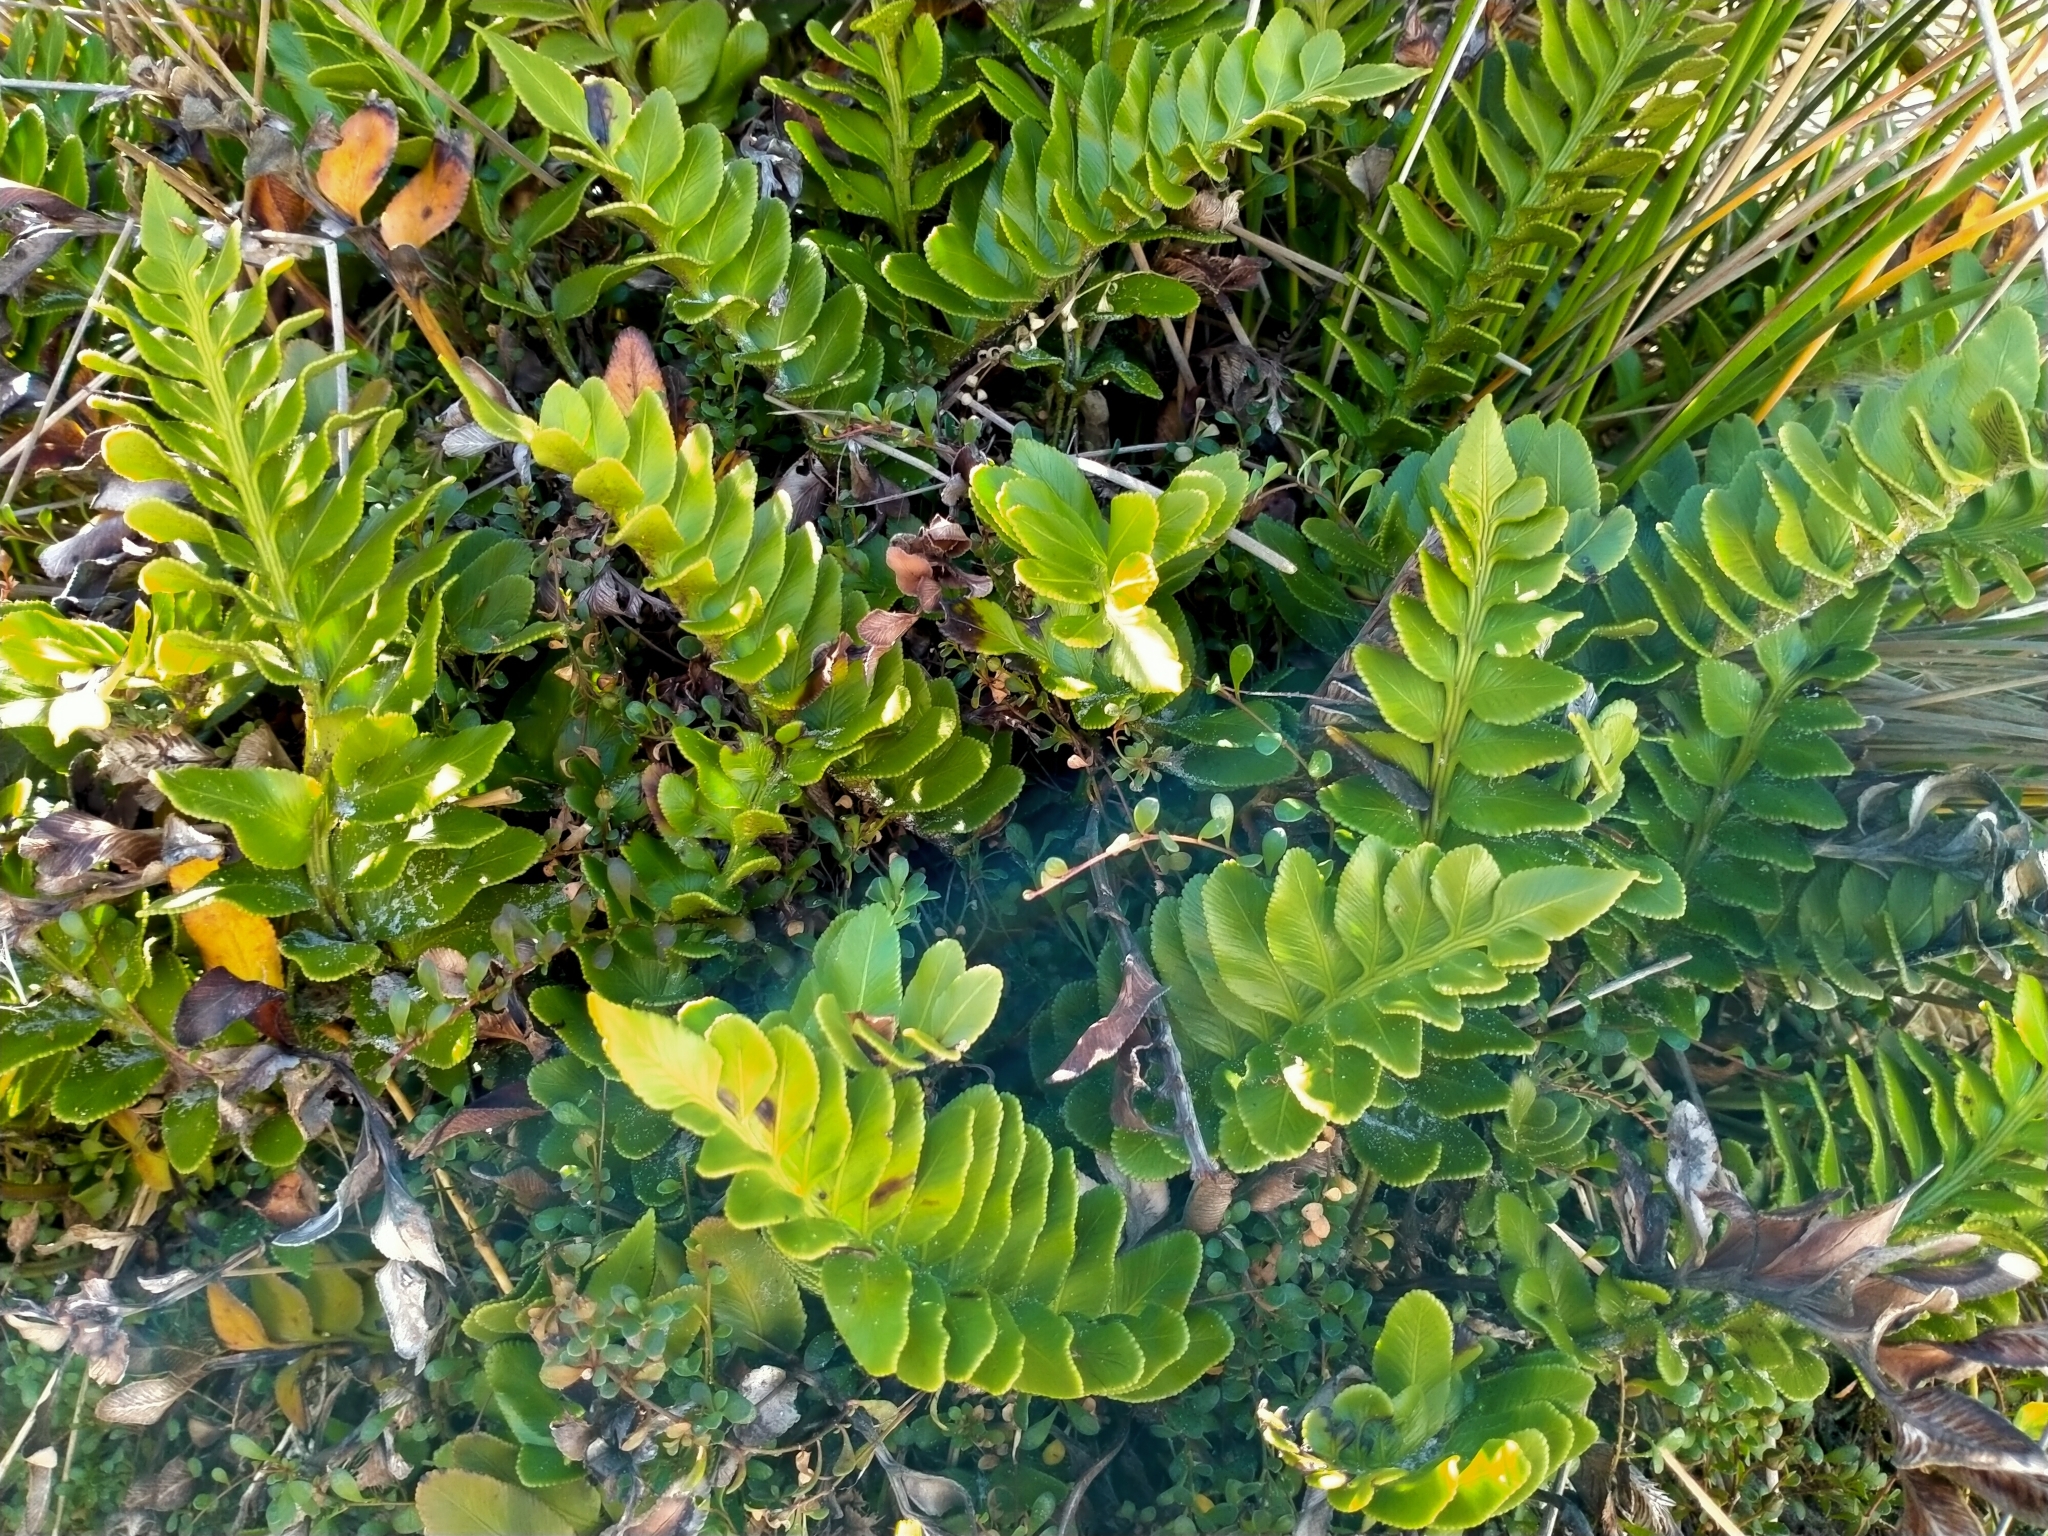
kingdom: Plantae
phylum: Tracheophyta
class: Polypodiopsida
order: Polypodiales
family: Aspleniaceae
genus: Asplenium
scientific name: Asplenium obtusatum
